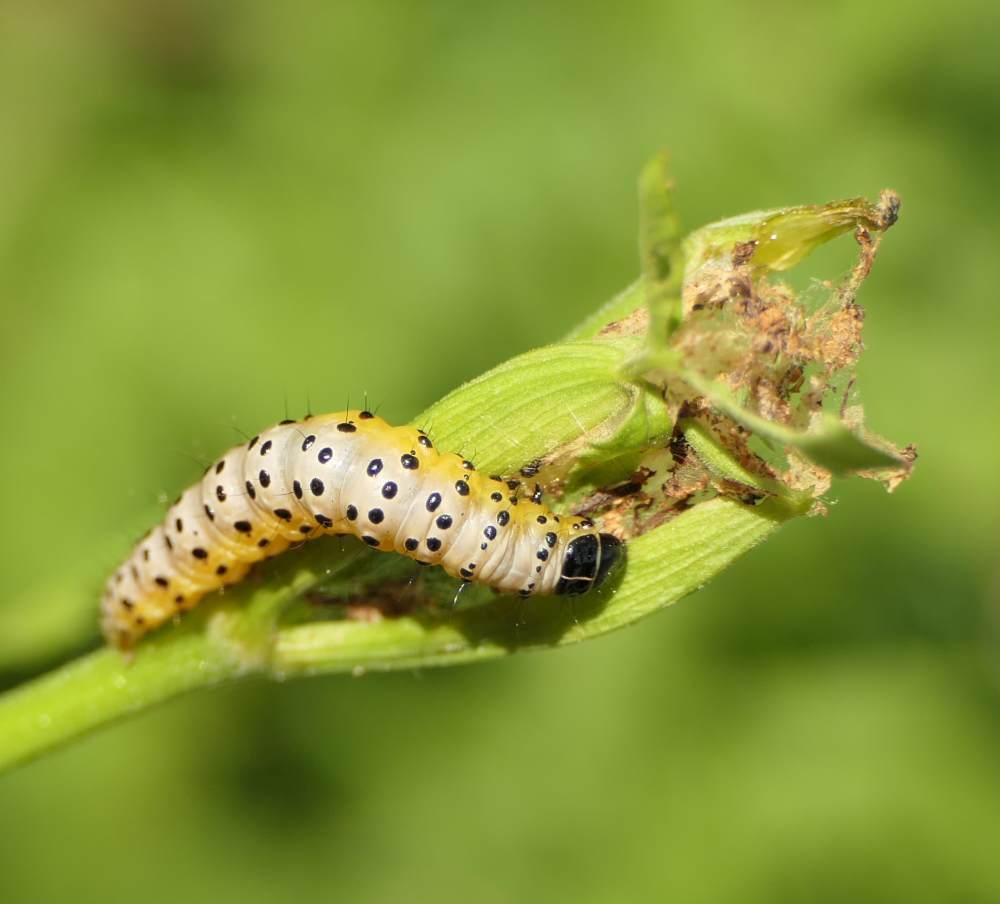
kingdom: Animalia
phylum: Arthropoda
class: Insecta
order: Lepidoptera
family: Depressariidae
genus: Depressaria
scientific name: Depressaria radiella
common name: Parsnip moth
